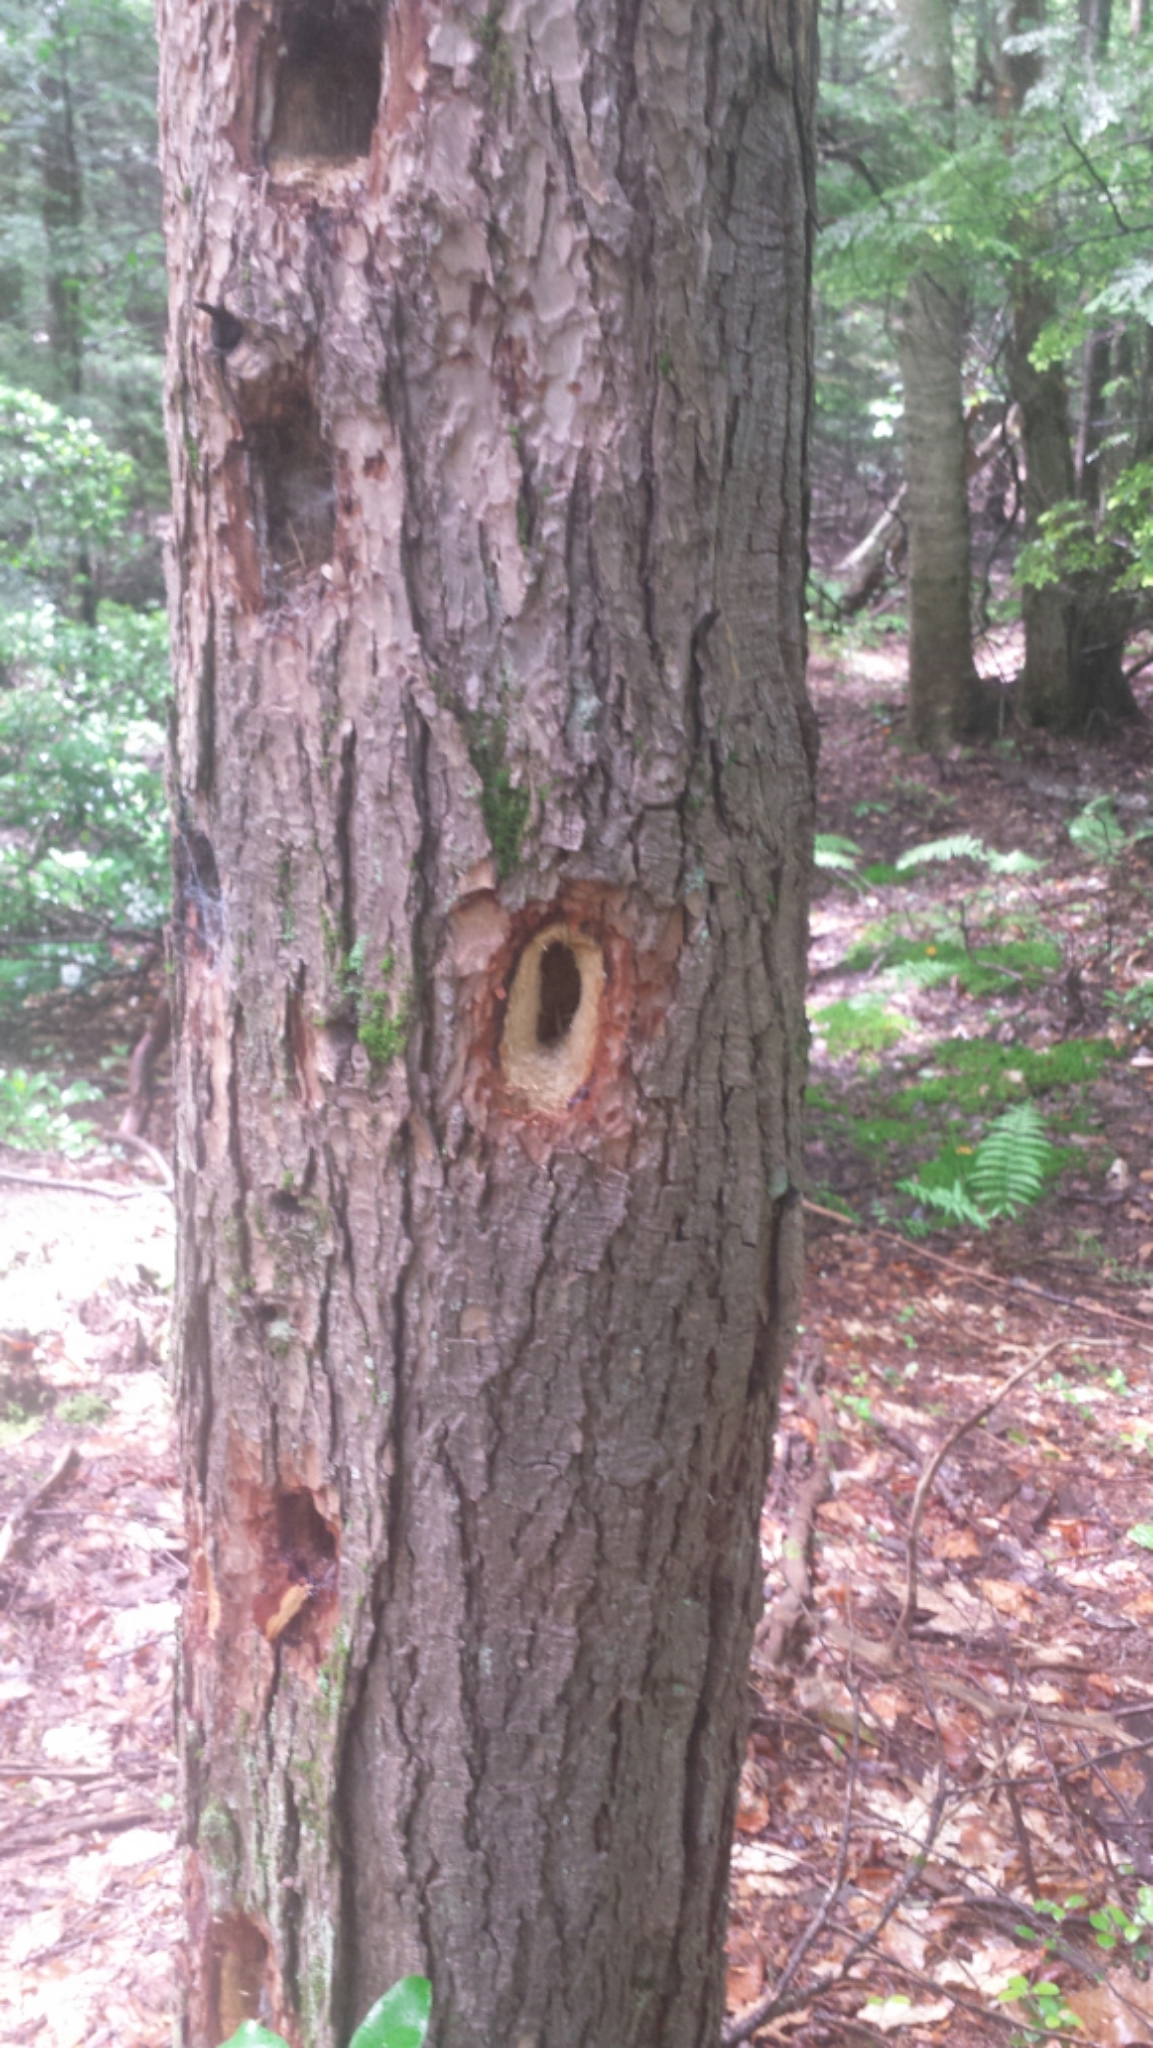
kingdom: Animalia
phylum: Chordata
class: Aves
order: Piciformes
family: Picidae
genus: Dryocopus
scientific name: Dryocopus pileatus
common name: Pileated woodpecker
